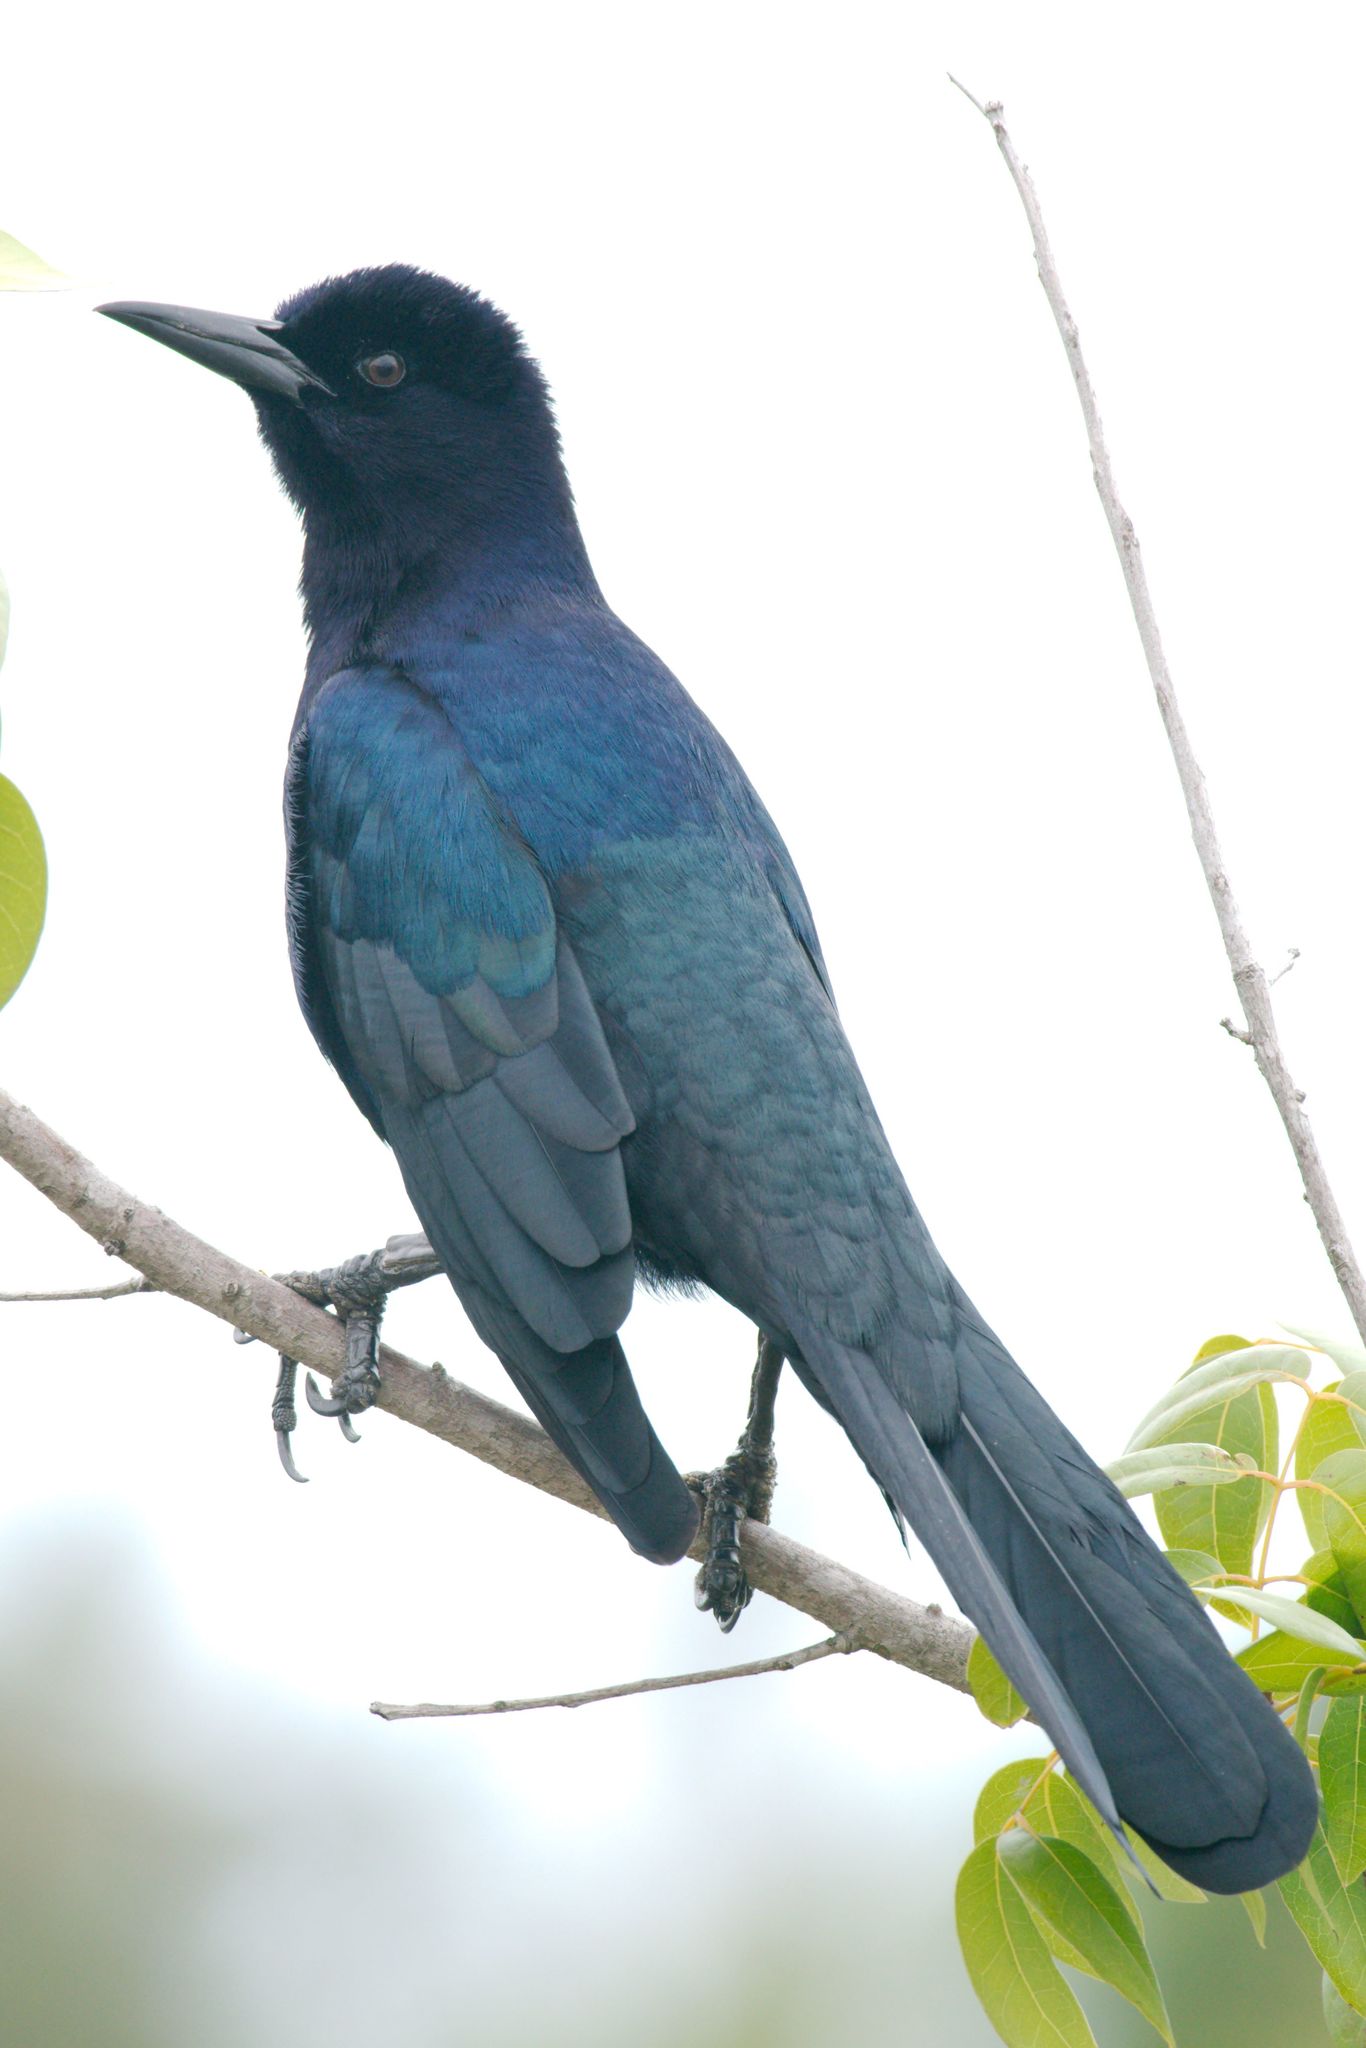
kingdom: Animalia
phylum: Chordata
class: Aves
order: Passeriformes
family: Icteridae
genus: Quiscalus
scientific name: Quiscalus major
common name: Boat-tailed grackle
